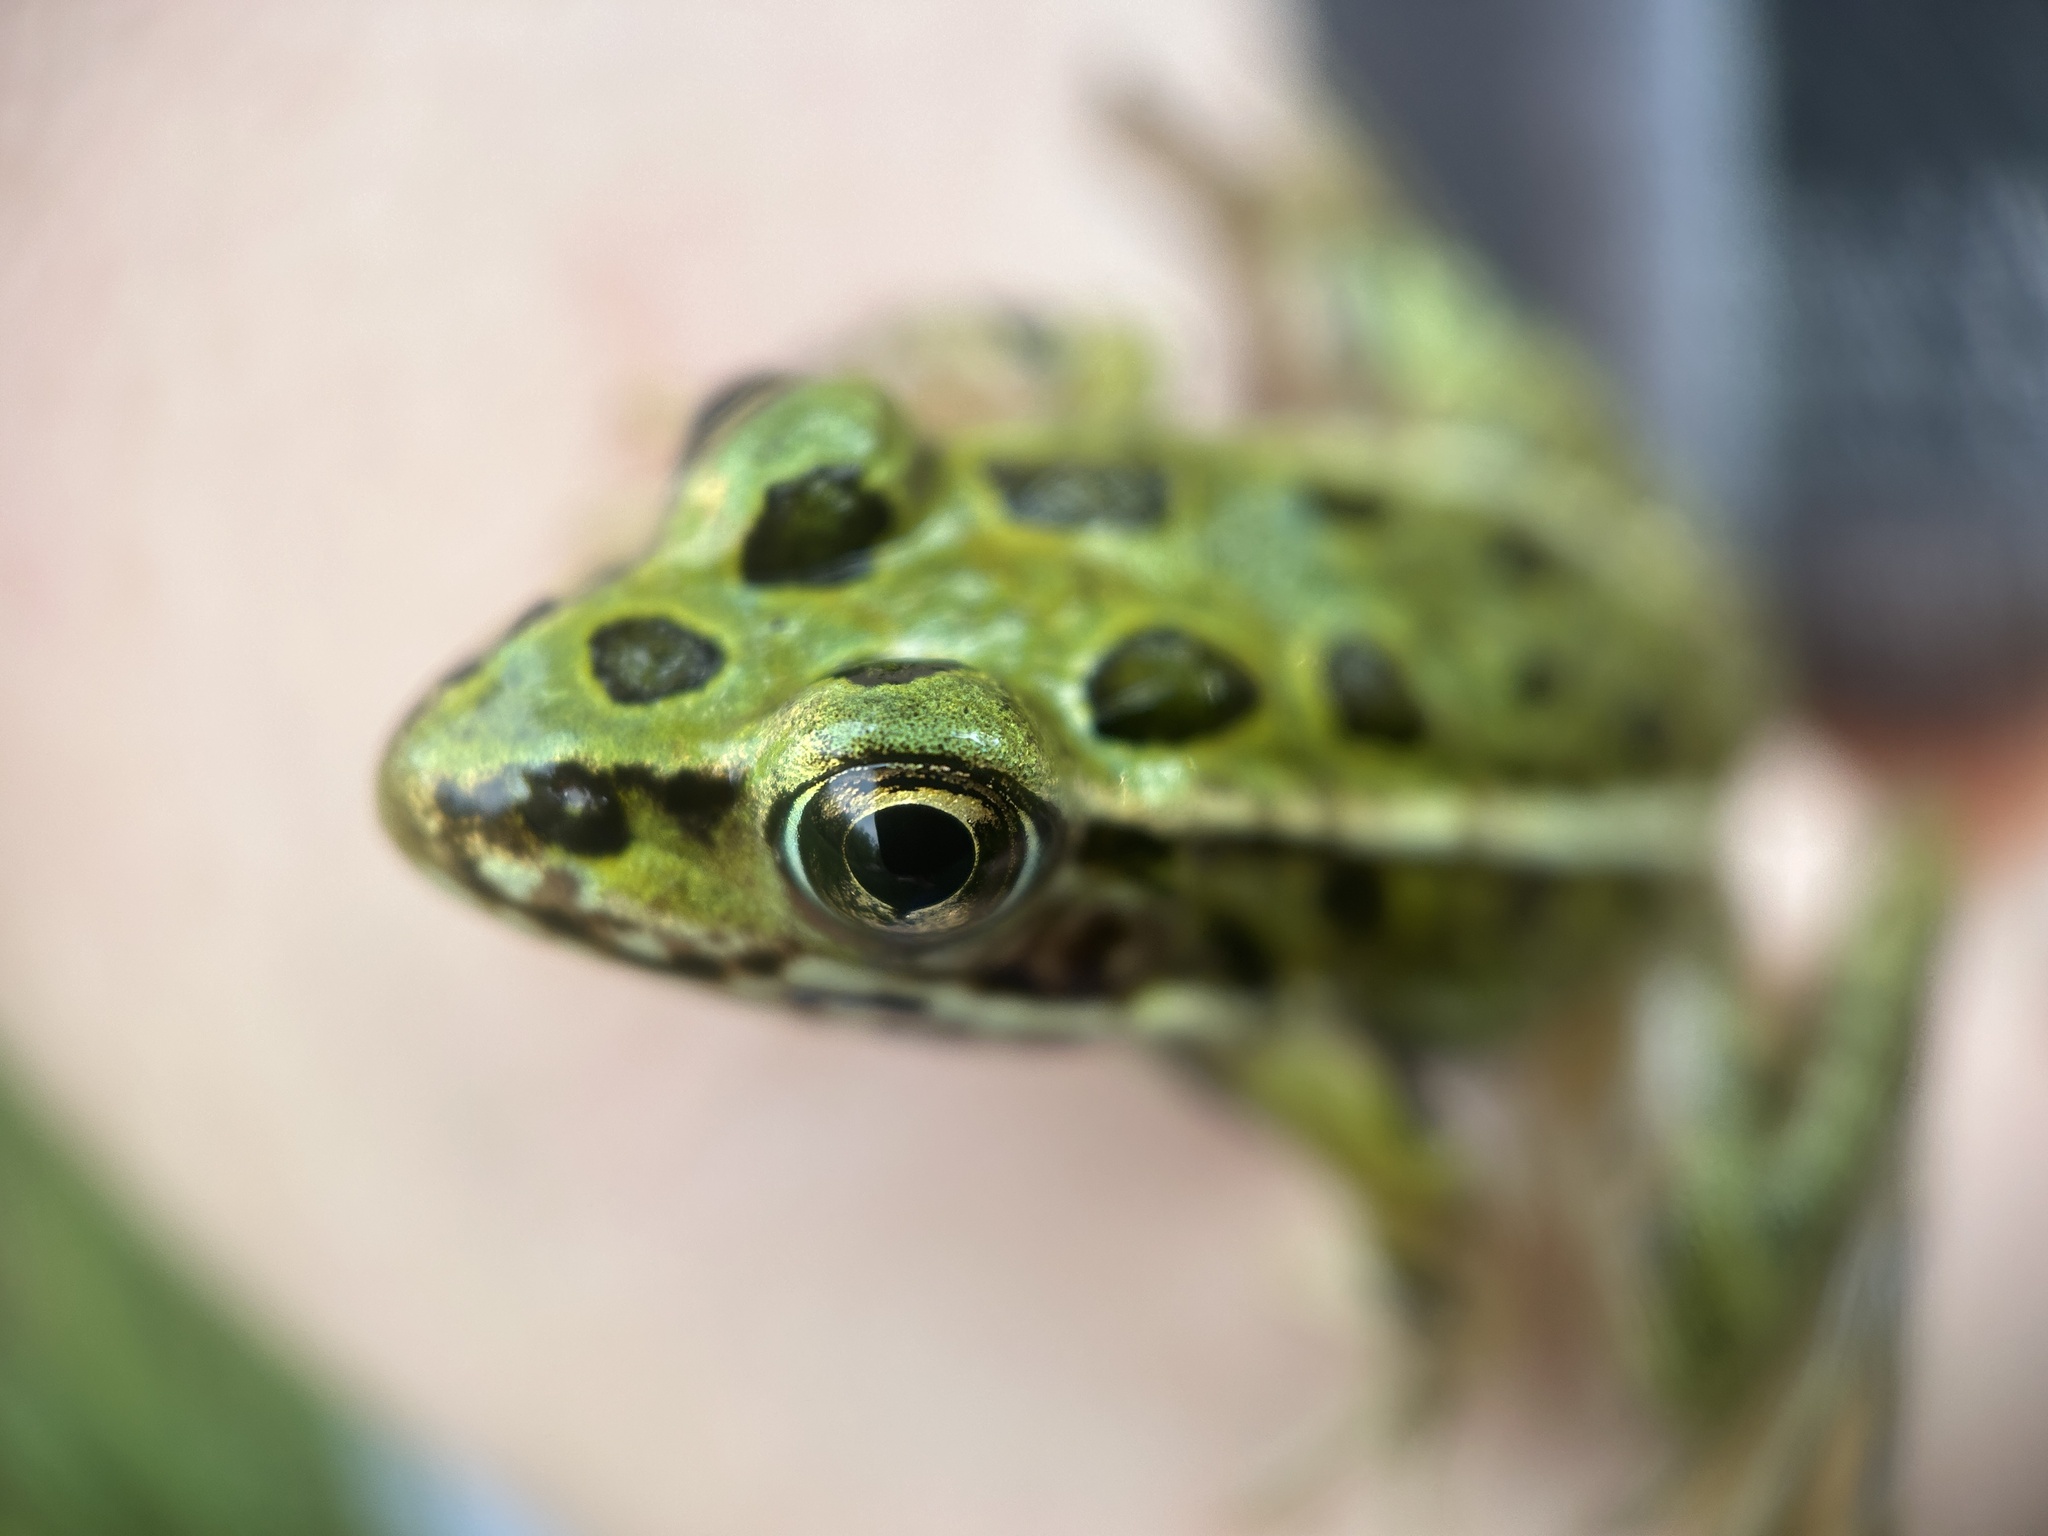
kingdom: Animalia
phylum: Chordata
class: Amphibia
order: Anura
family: Ranidae
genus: Lithobates
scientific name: Lithobates pipiens
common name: Northern leopard frog
